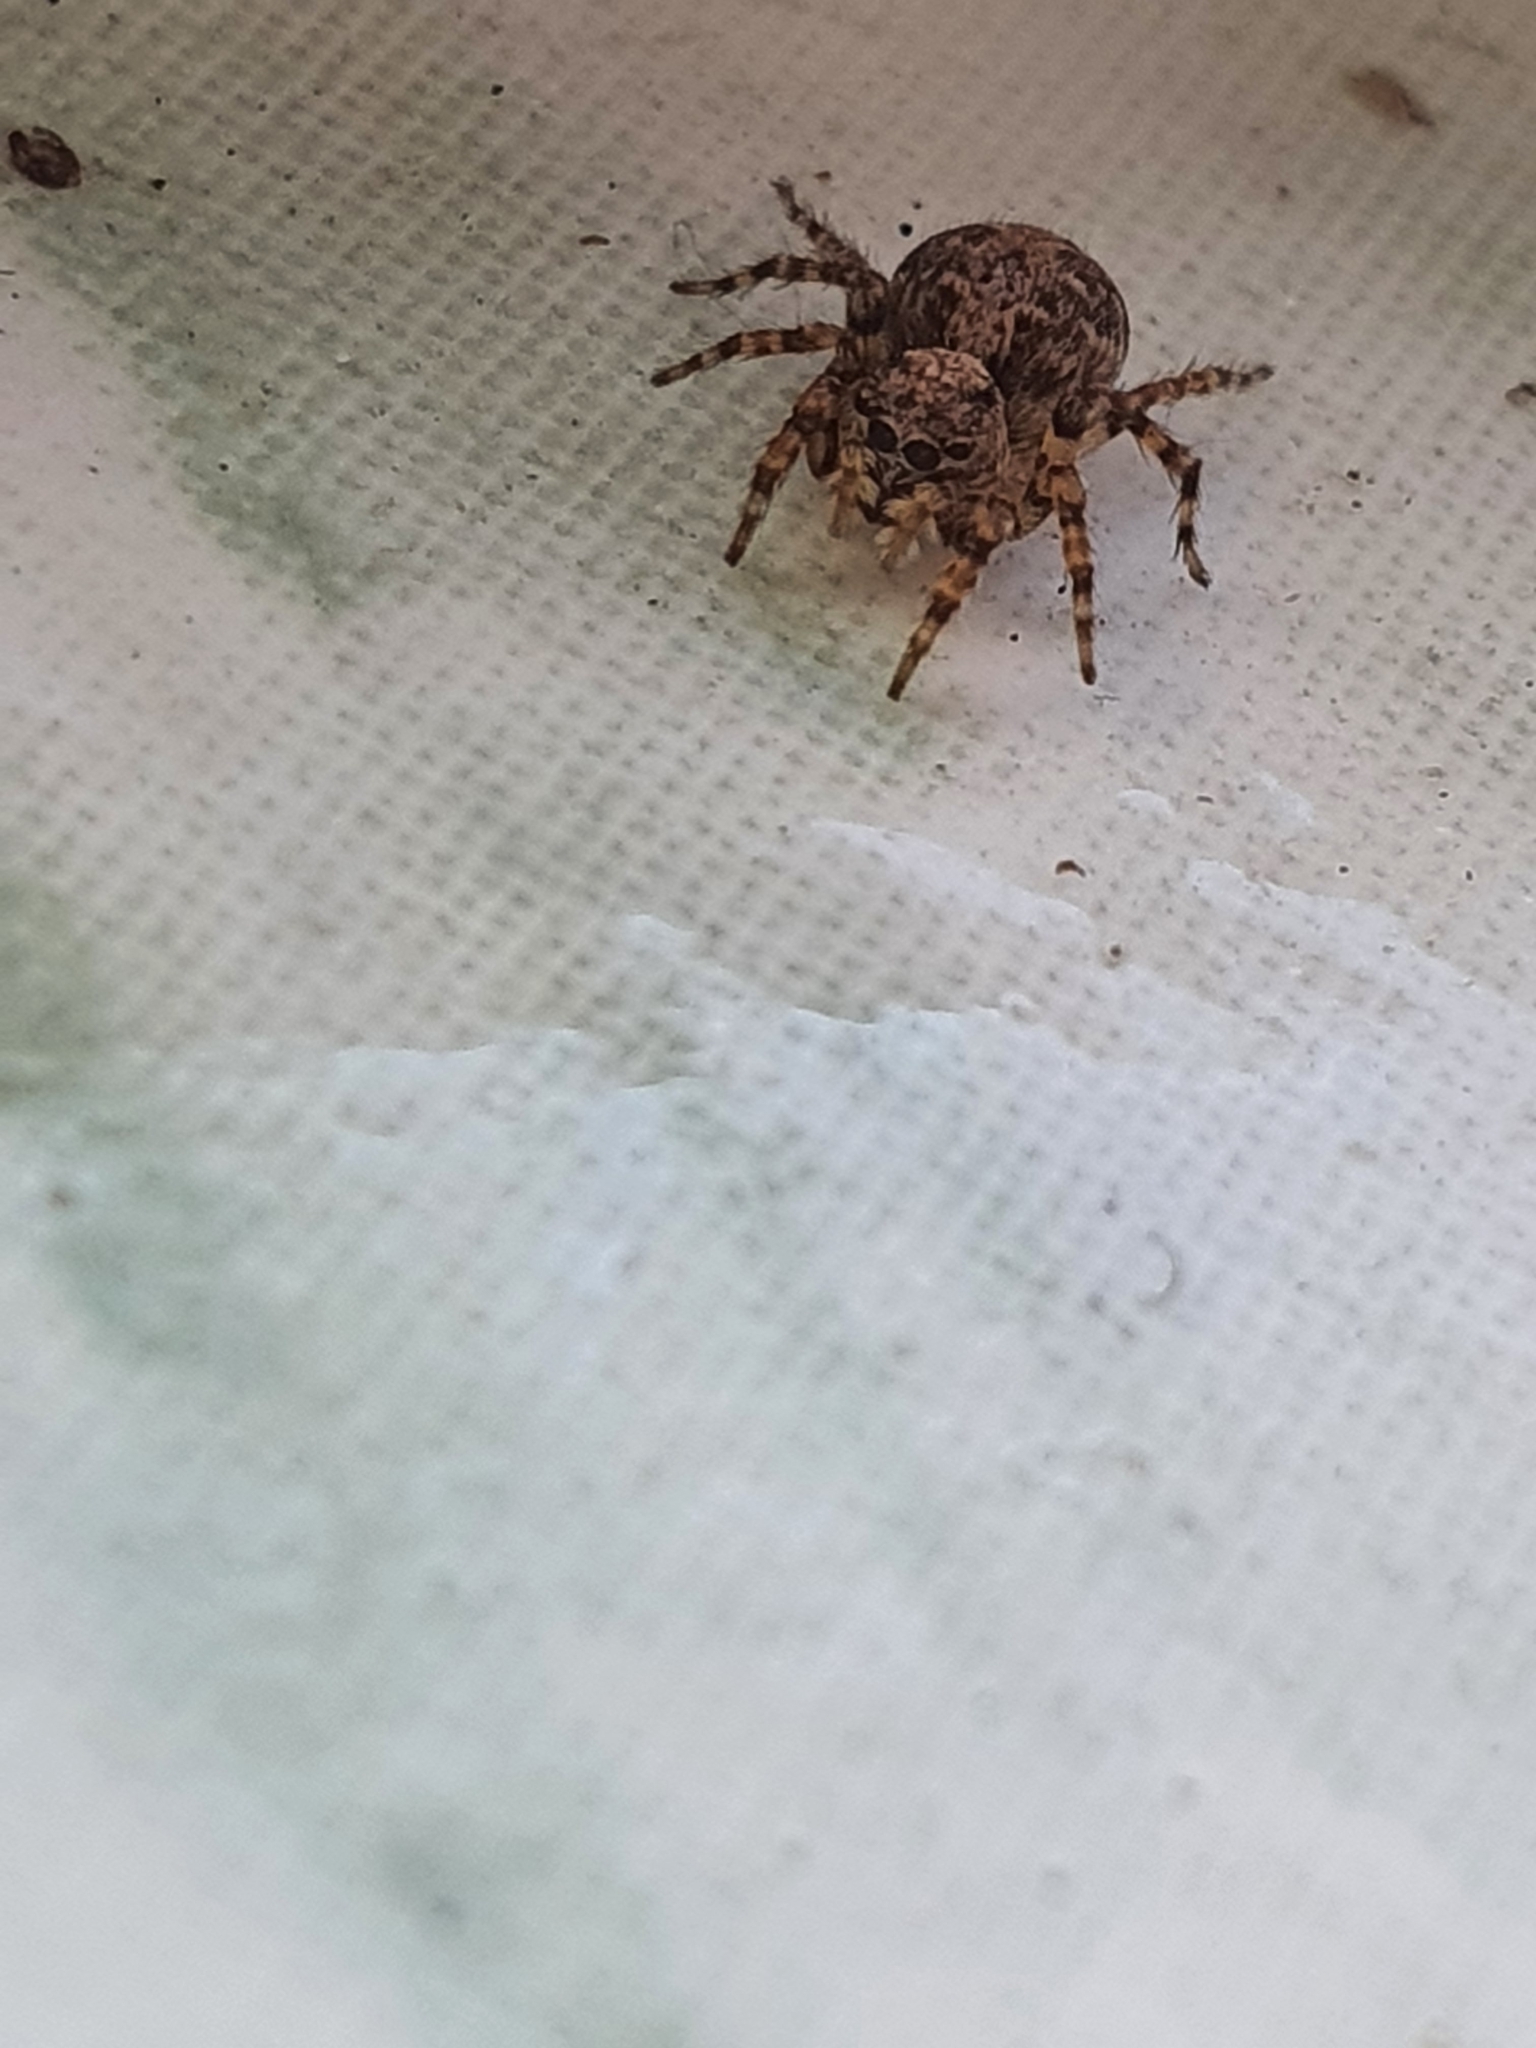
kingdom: Animalia
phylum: Arthropoda
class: Arachnida
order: Araneae
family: Salticidae
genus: Marma
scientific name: Marma nigritarsis
